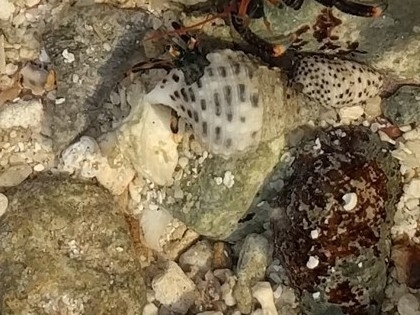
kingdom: Animalia
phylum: Arthropoda
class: Malacostraca
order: Decapoda
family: Diogenidae
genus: Clibanarius
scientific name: Clibanarius humilis
